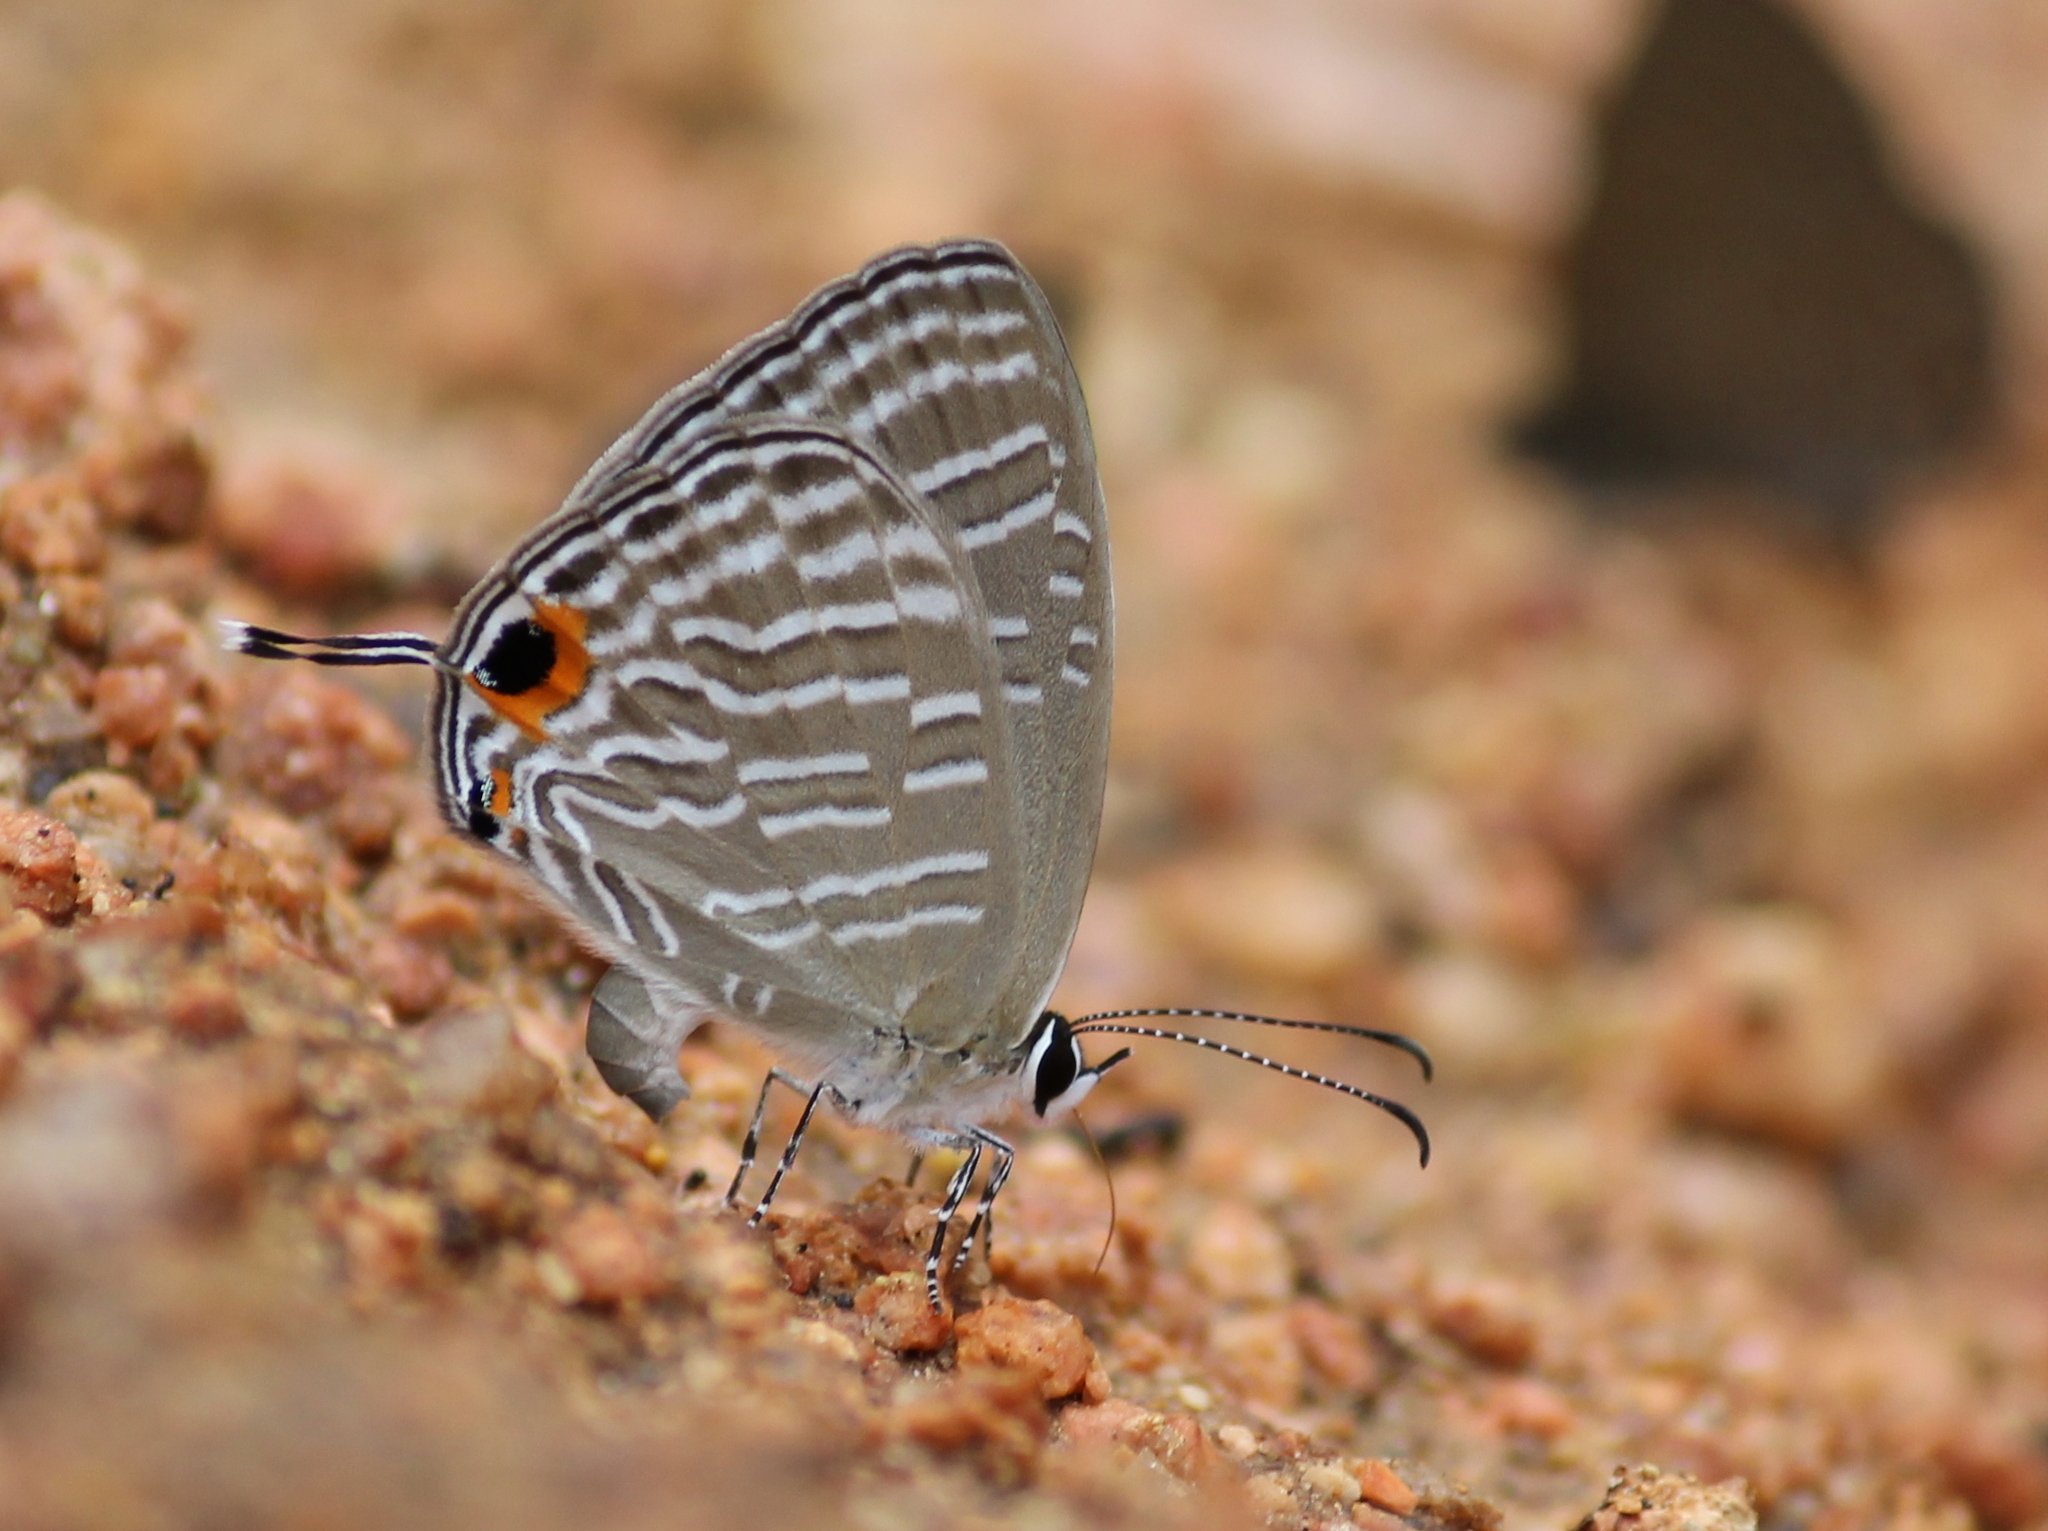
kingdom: Animalia
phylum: Arthropoda
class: Insecta
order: Lepidoptera
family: Lycaenidae
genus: Jamides
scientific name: Jamides celeno
